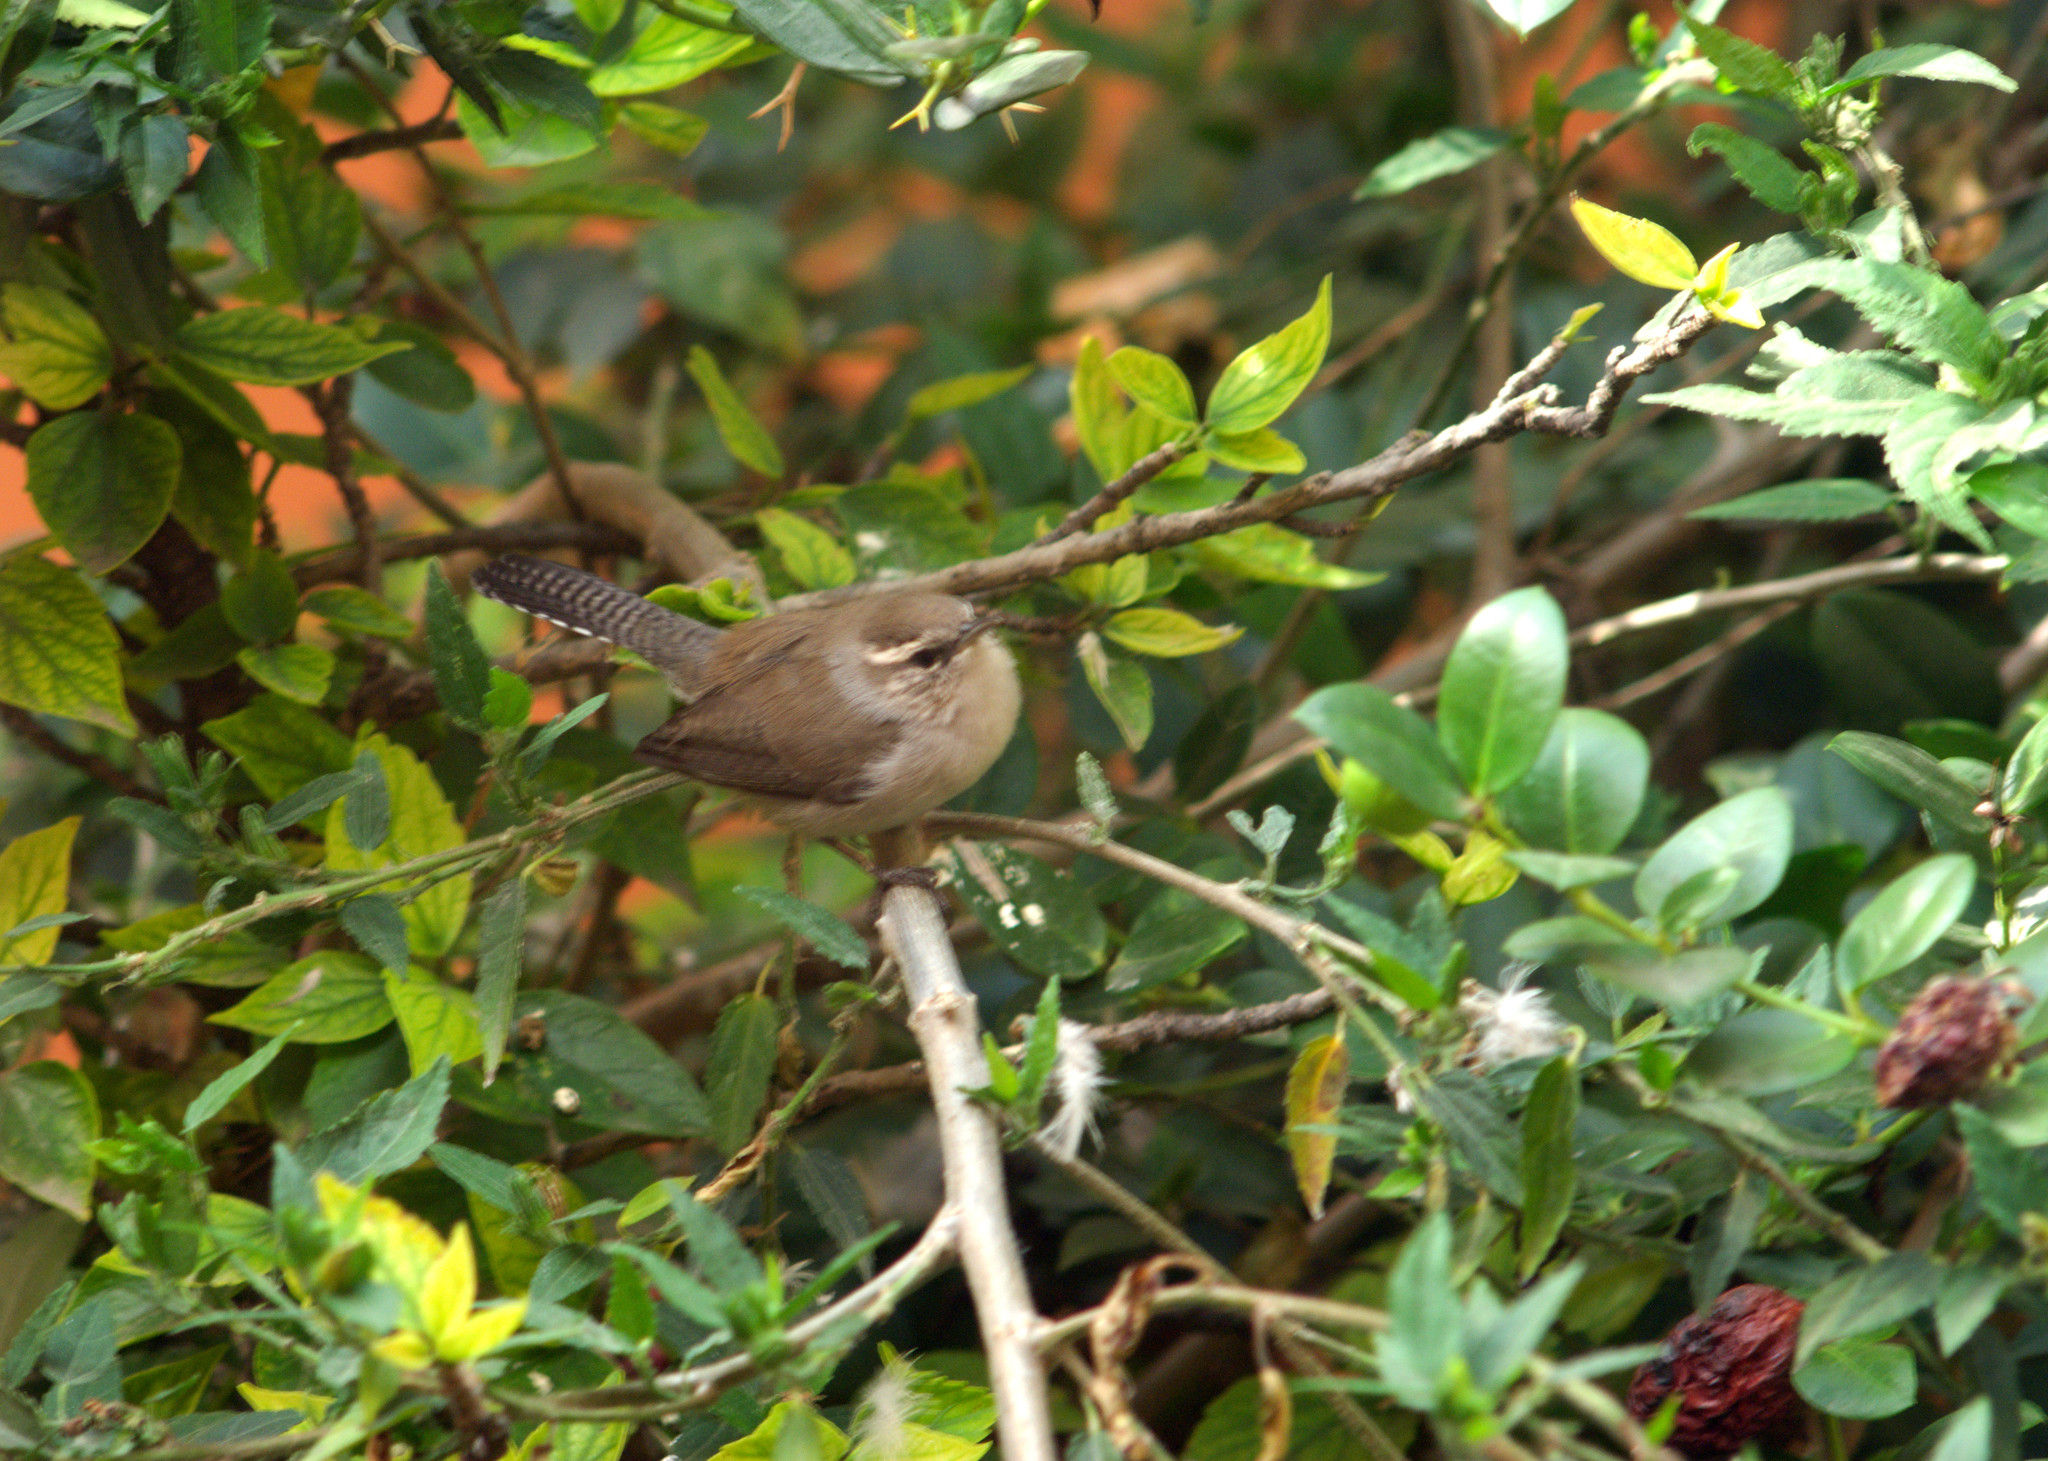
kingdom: Animalia
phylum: Chordata
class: Aves
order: Passeriformes
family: Troglodytidae
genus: Thryomanes
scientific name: Thryomanes bewickii
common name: Bewick's wren
